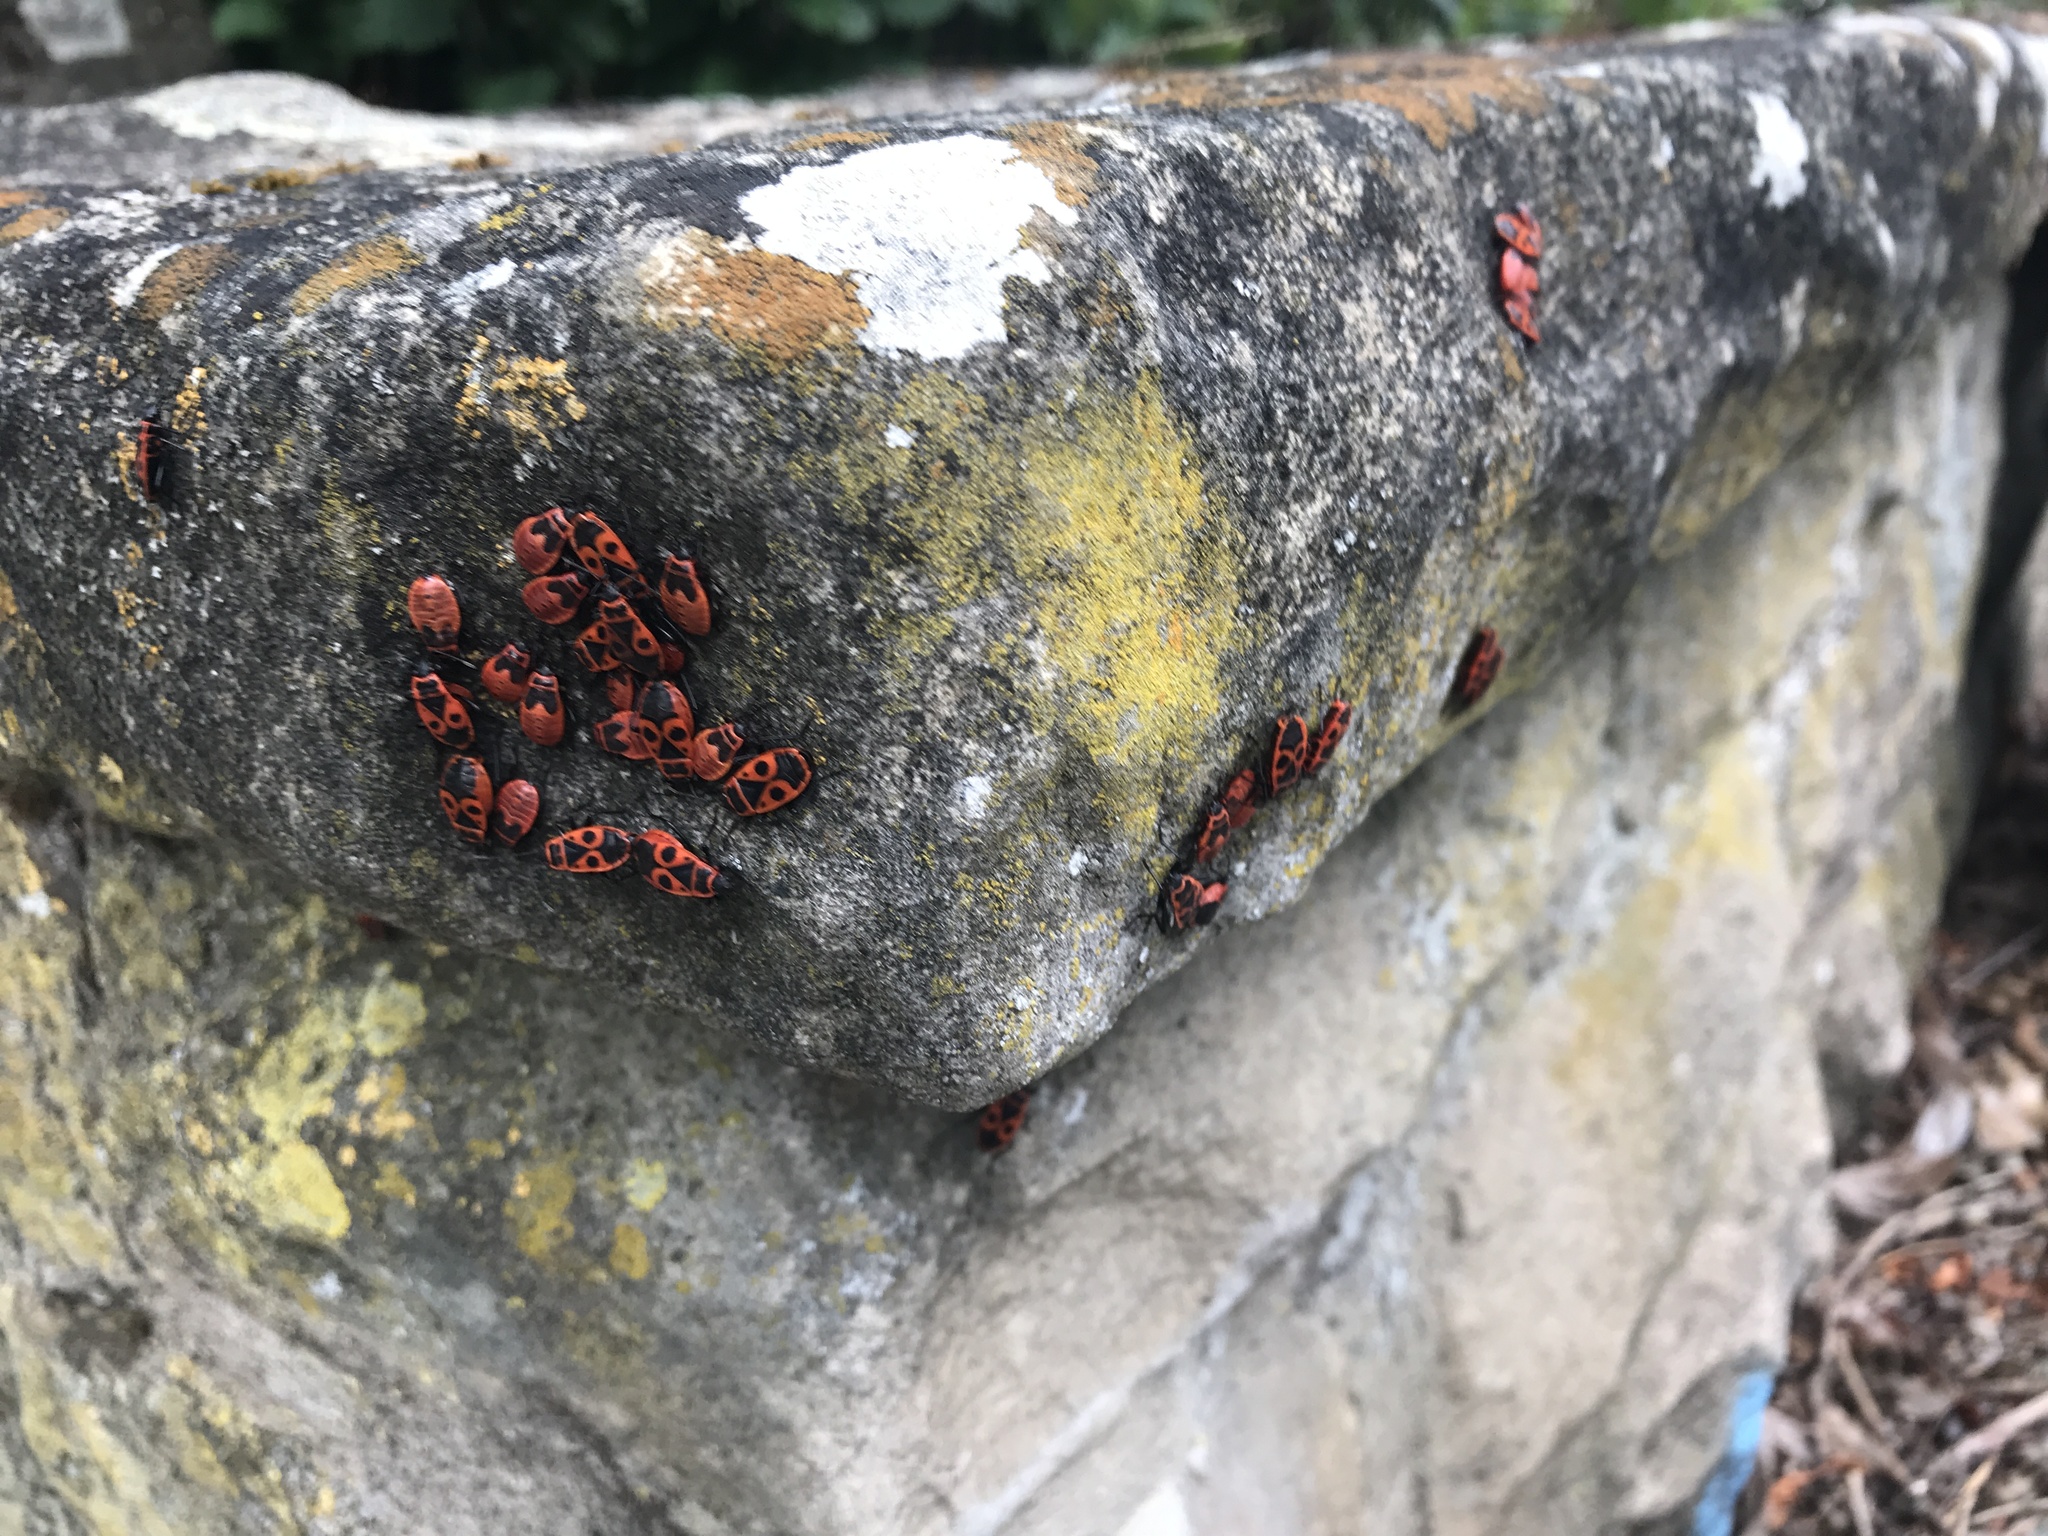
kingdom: Animalia
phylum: Arthropoda
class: Insecta
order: Hemiptera
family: Pyrrhocoridae
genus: Pyrrhocoris
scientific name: Pyrrhocoris apterus
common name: Firebug
